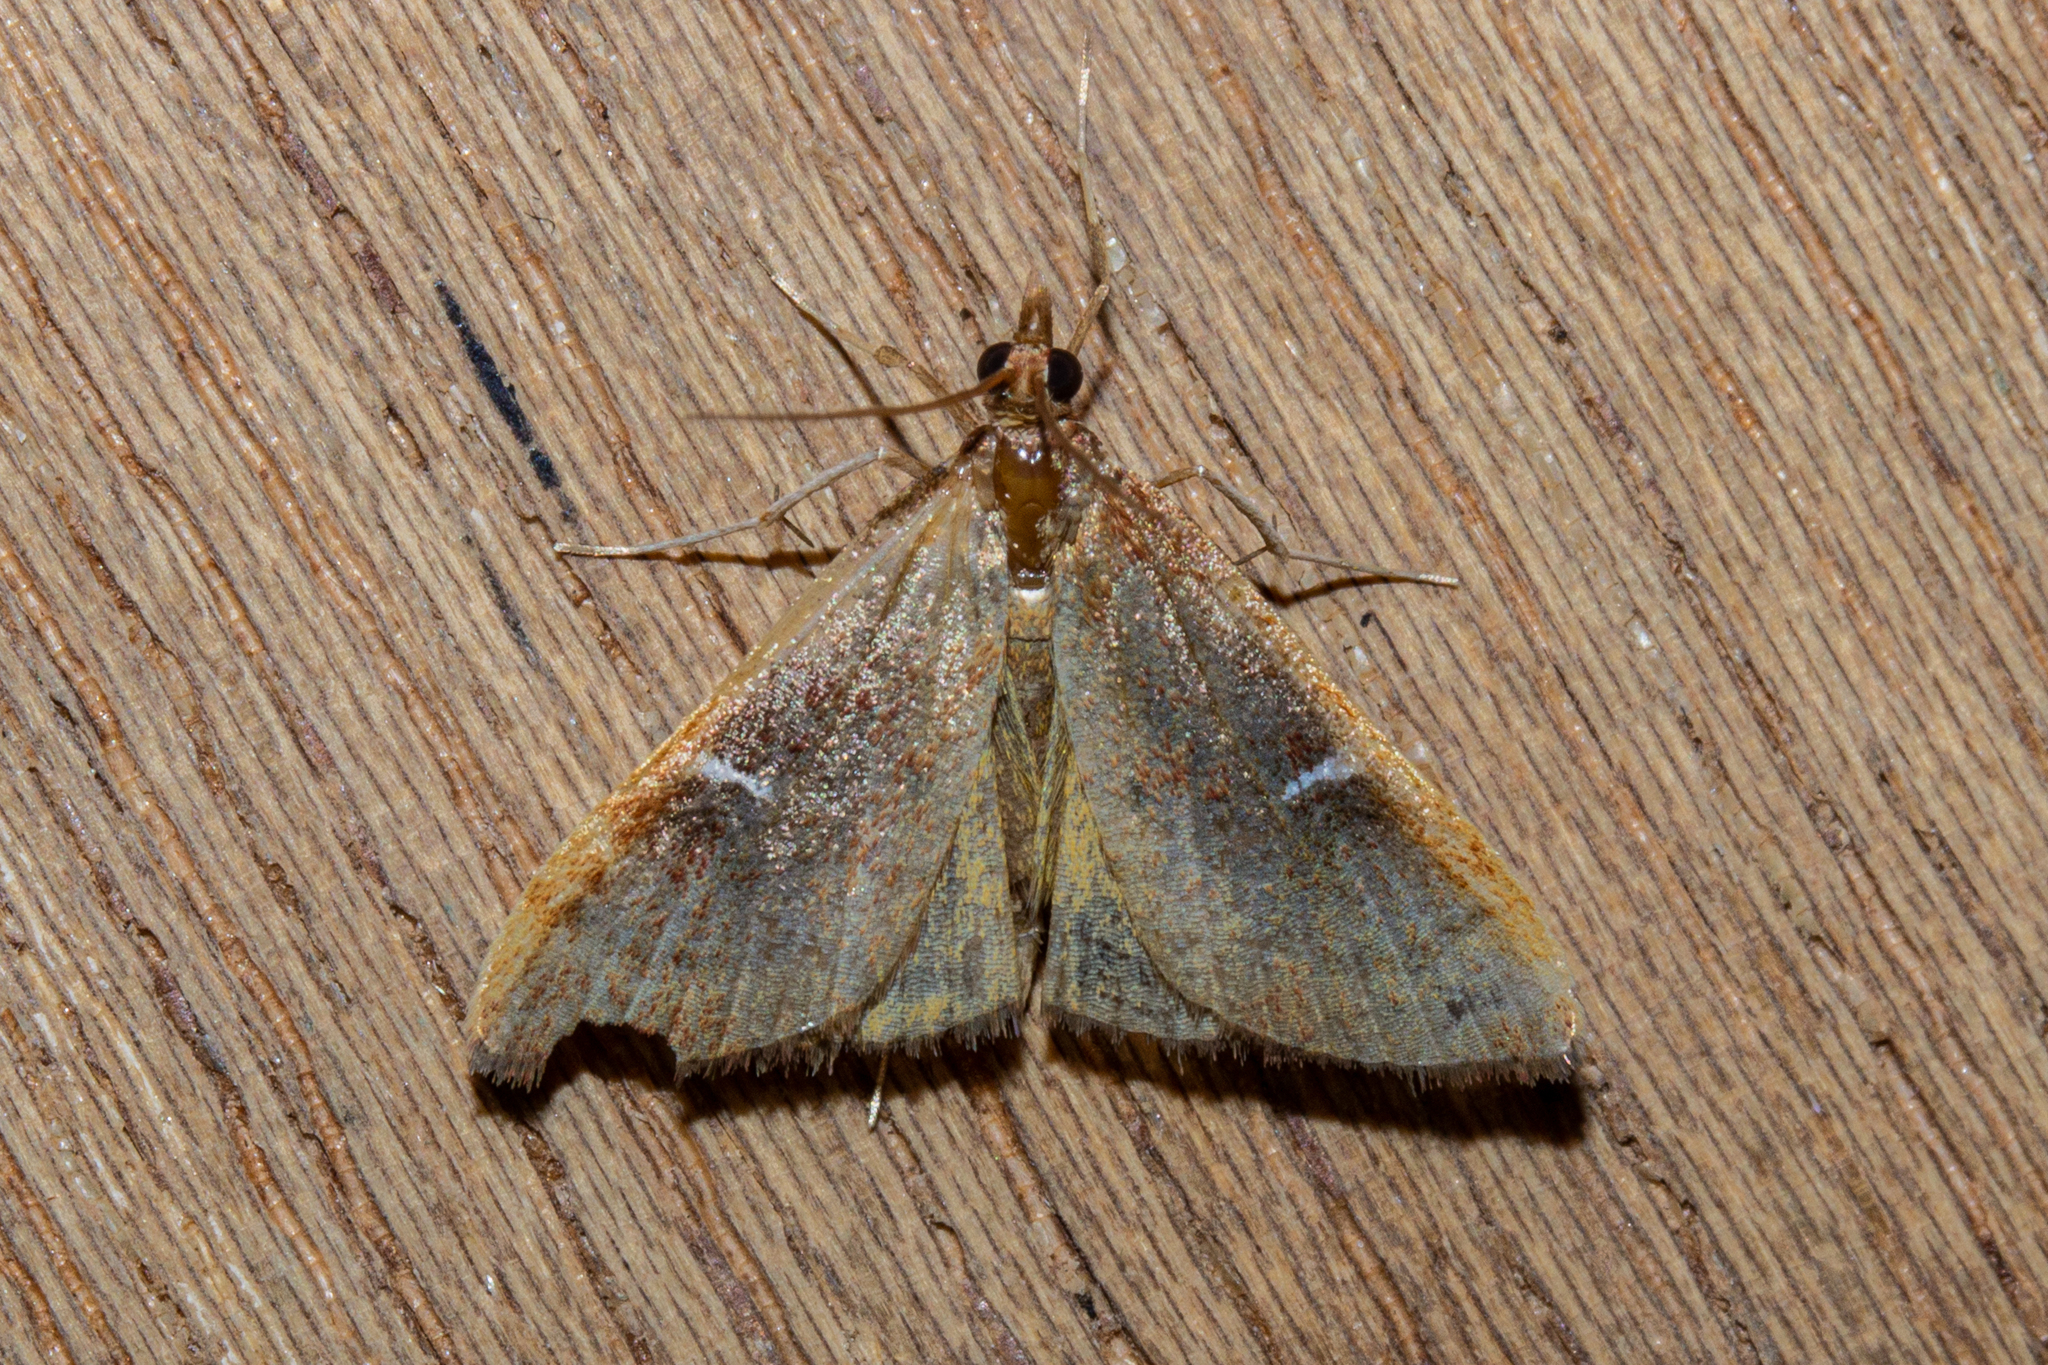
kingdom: Animalia
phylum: Arthropoda
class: Insecta
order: Lepidoptera
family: Crambidae
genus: Udea
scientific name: Udea notata
